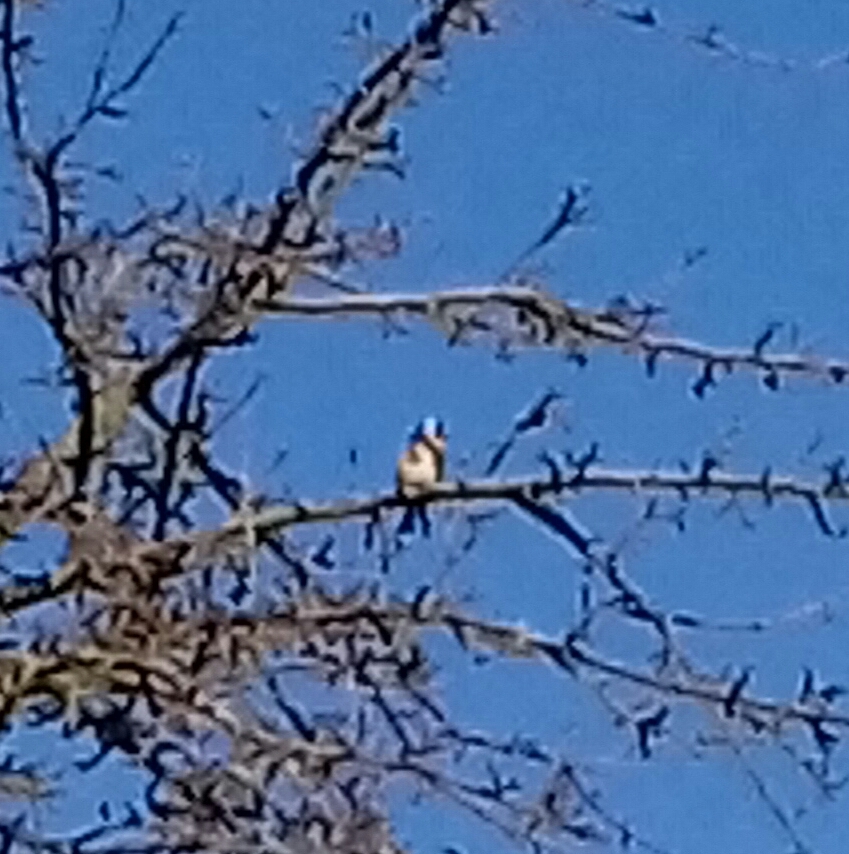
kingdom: Animalia
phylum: Chordata
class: Aves
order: Passeriformes
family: Fringillidae
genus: Carduelis
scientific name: Carduelis carduelis
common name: European goldfinch
